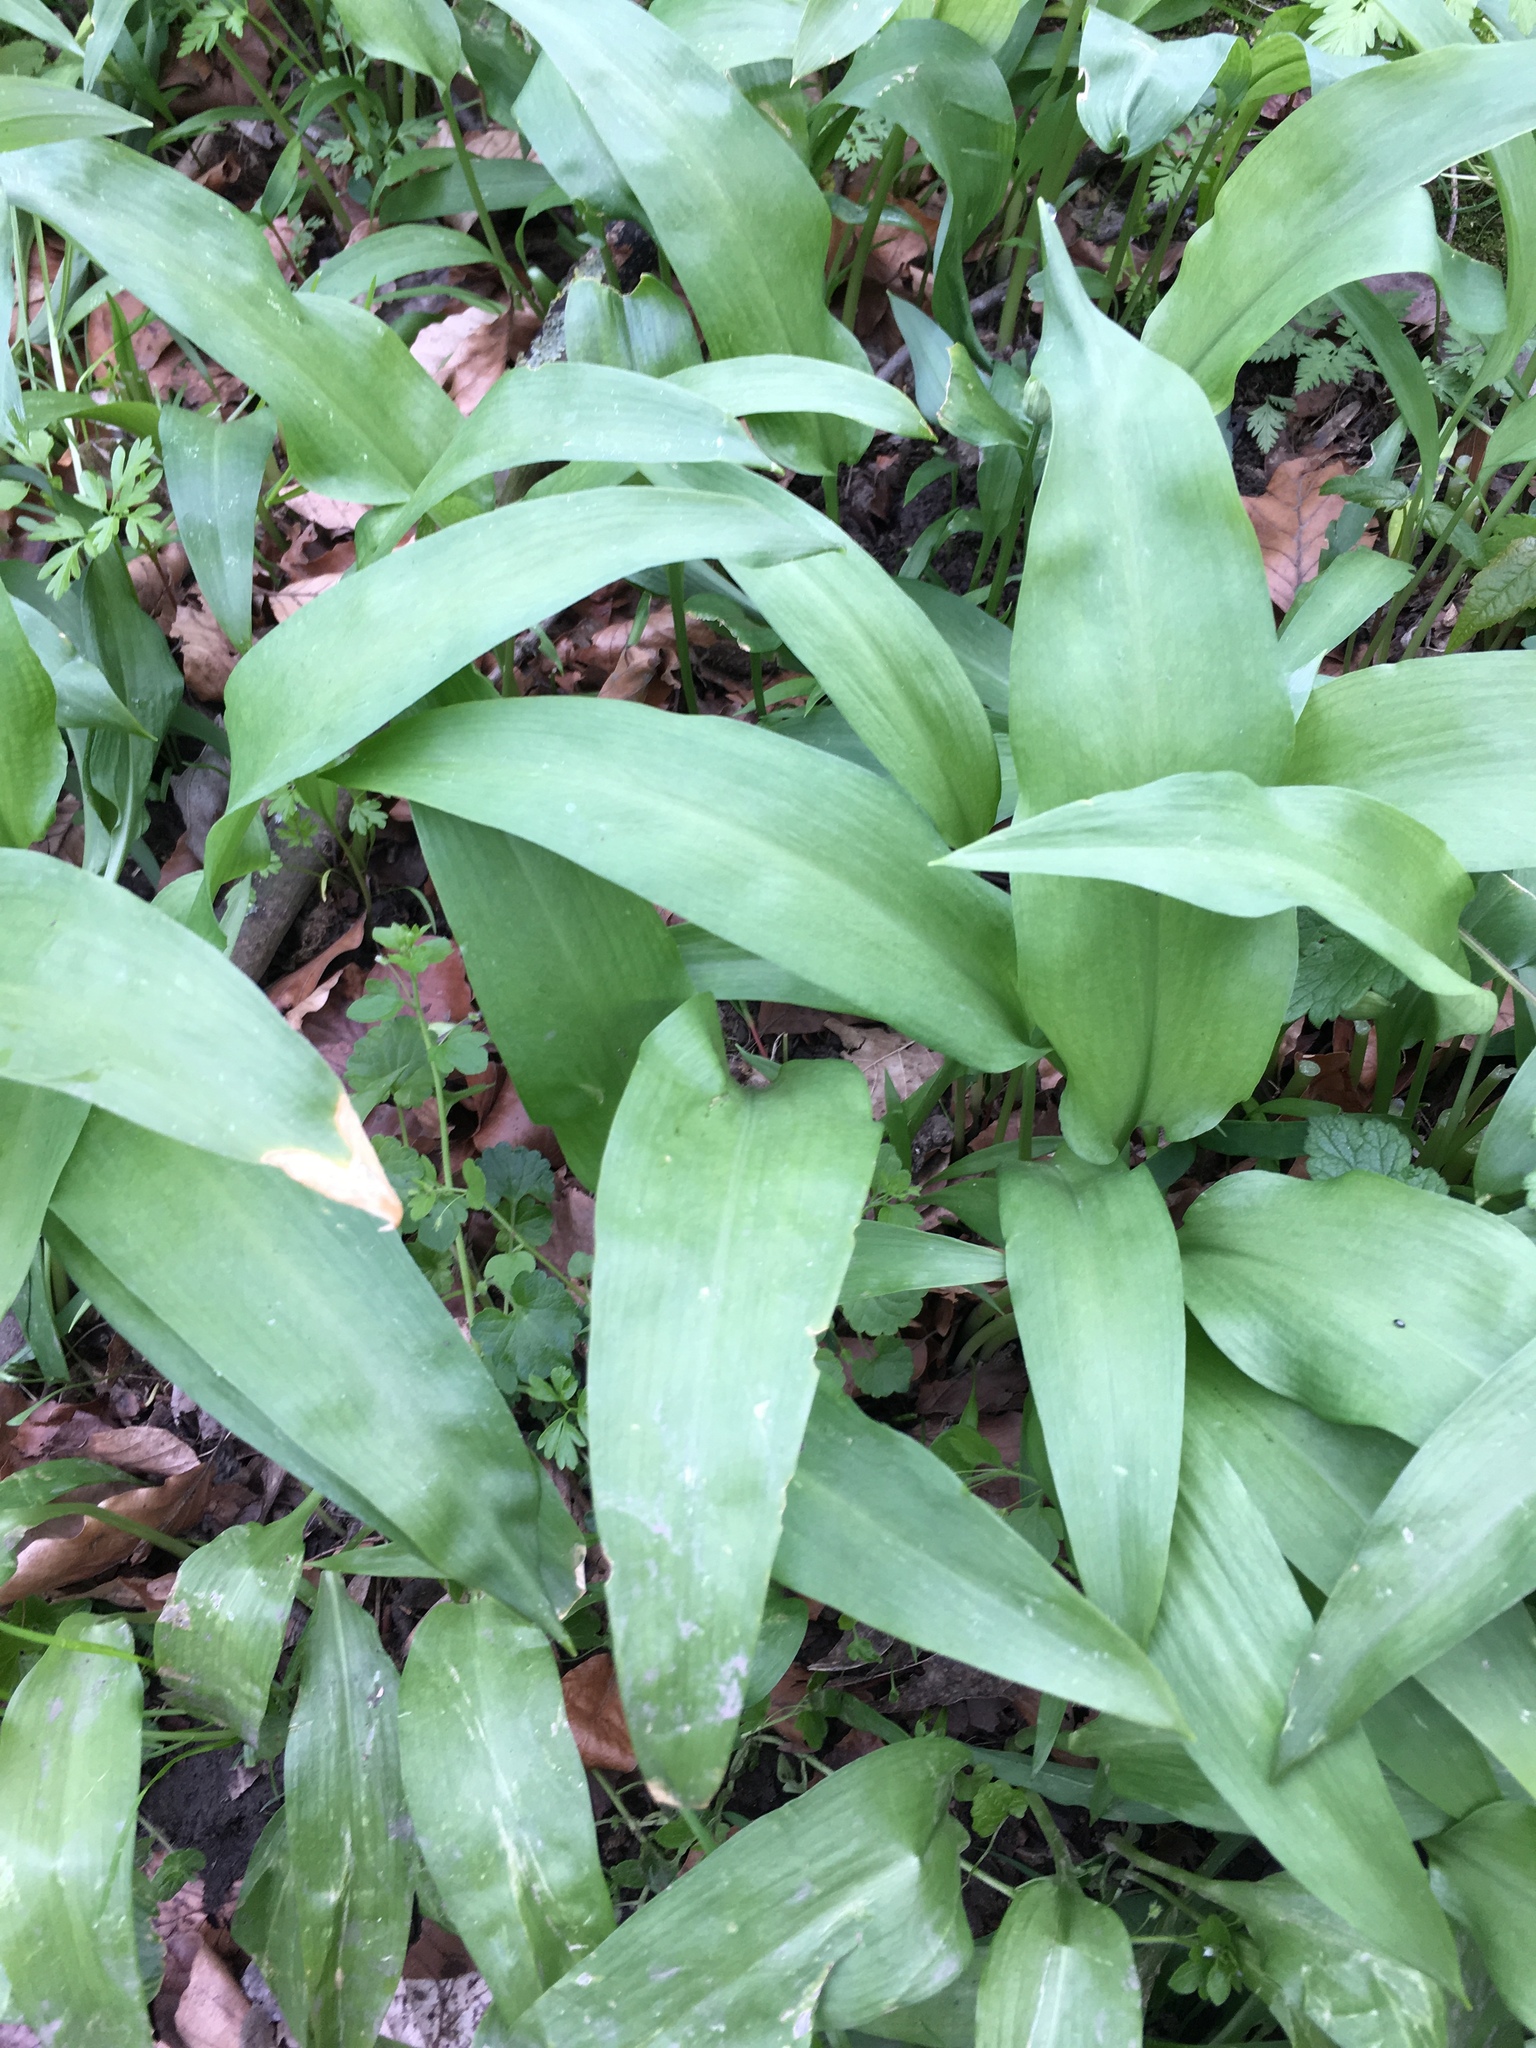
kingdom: Plantae
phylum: Tracheophyta
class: Liliopsida
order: Asparagales
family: Amaryllidaceae
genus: Allium
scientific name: Allium ursinum
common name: Ramsons
